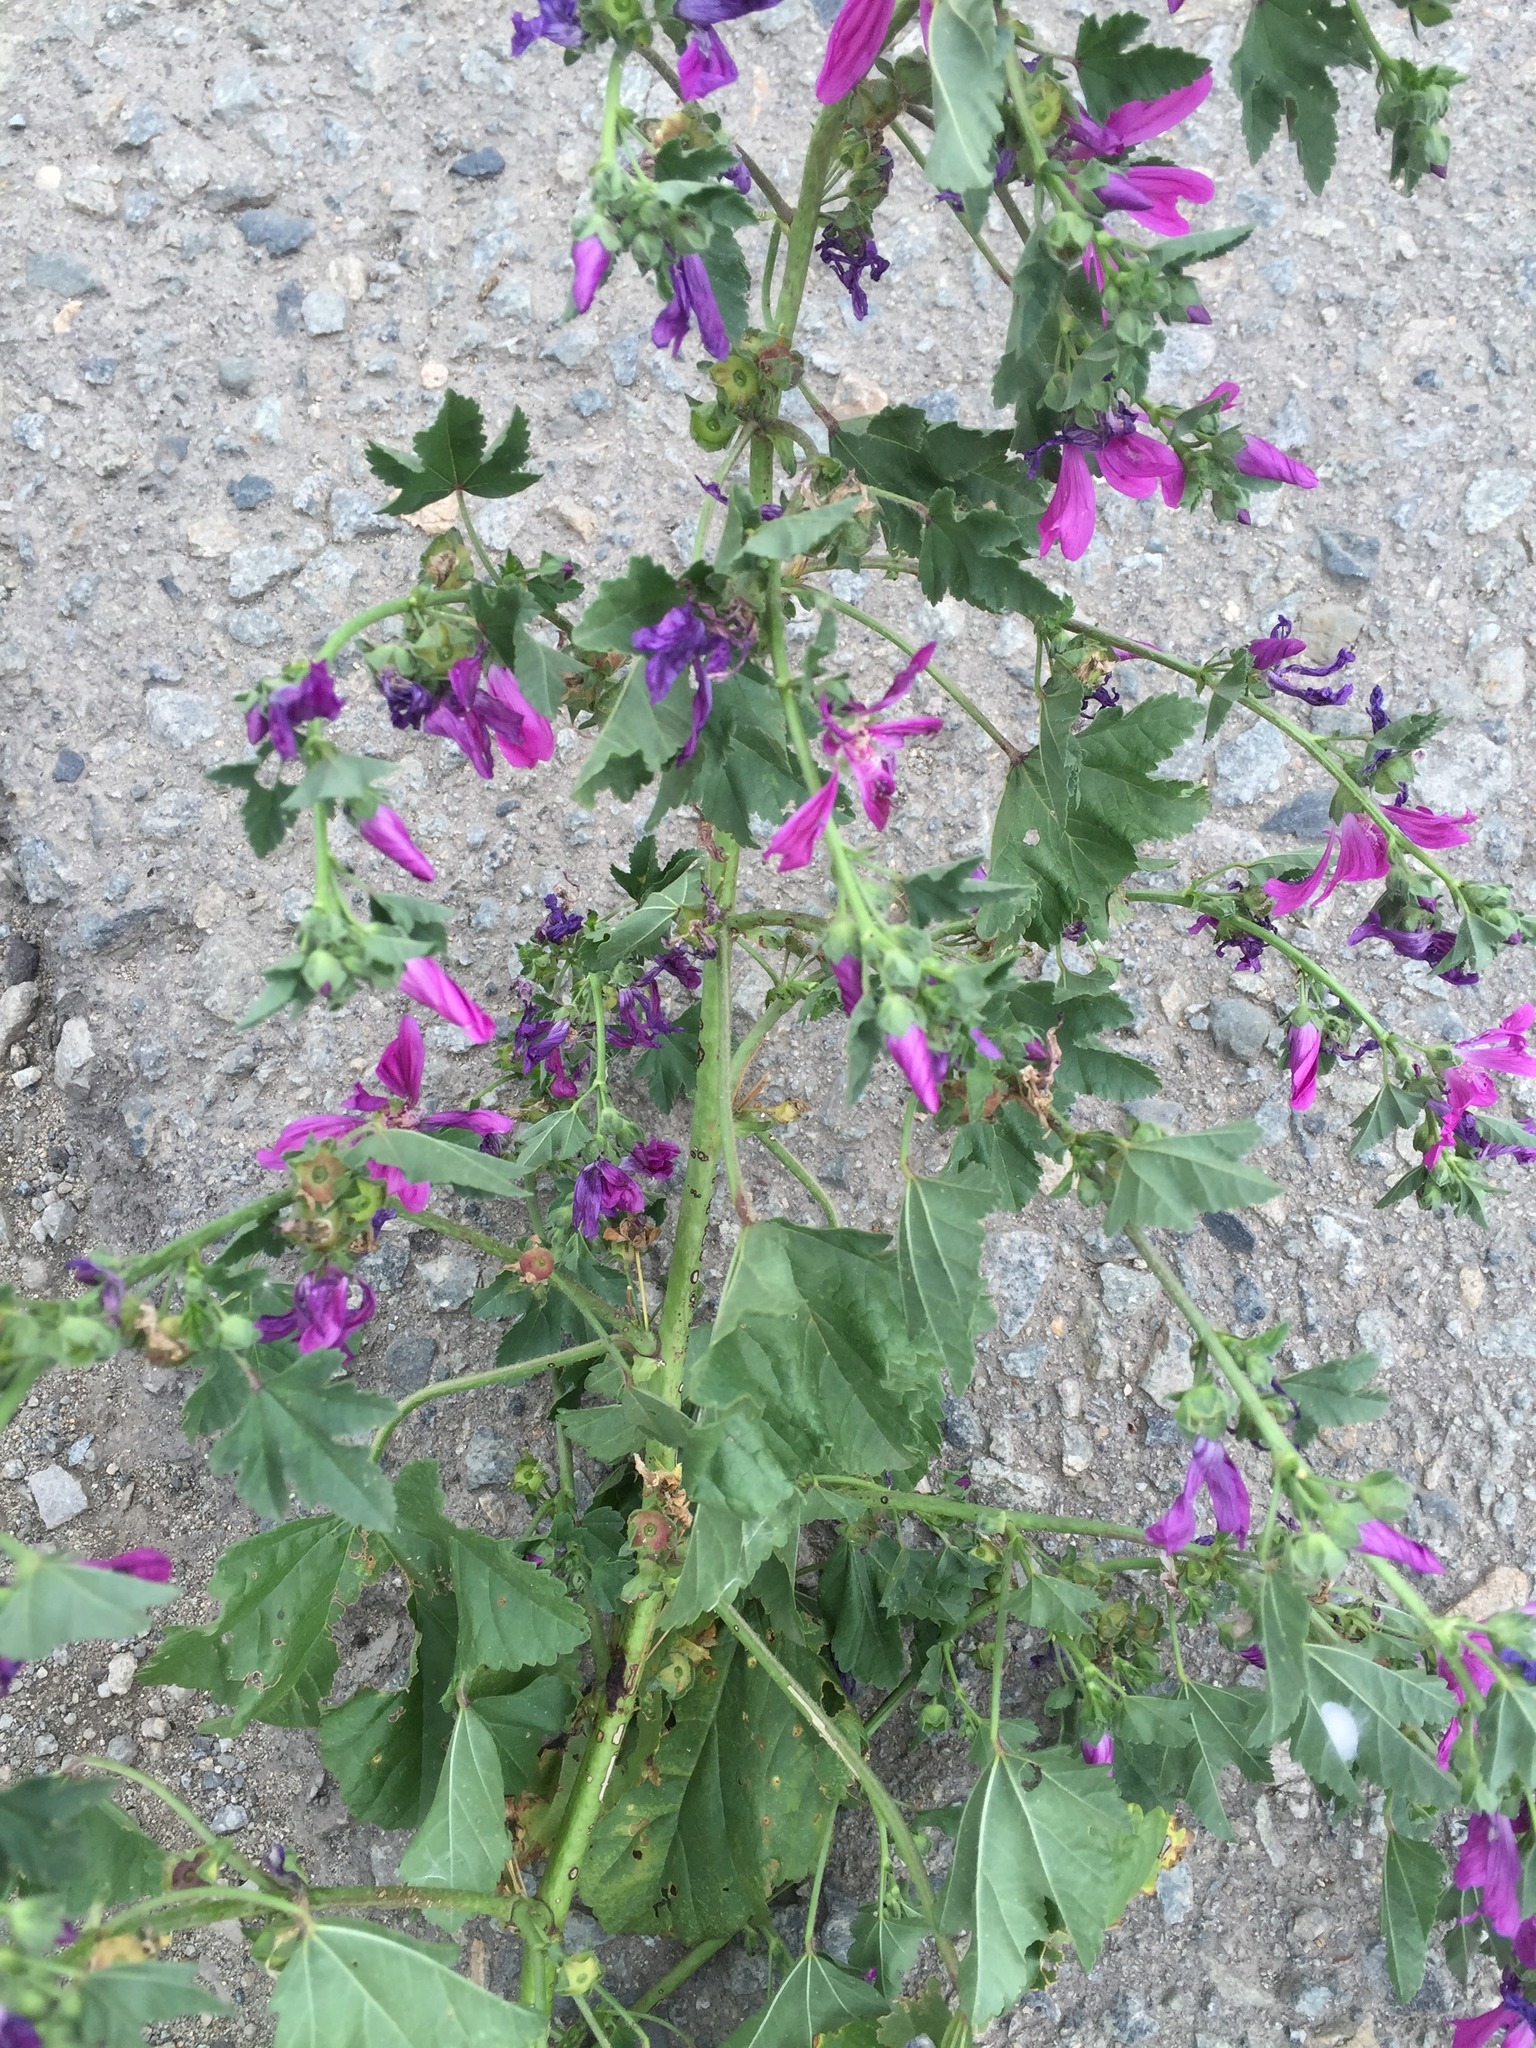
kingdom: Plantae
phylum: Tracheophyta
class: Magnoliopsida
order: Malvales
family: Malvaceae
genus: Malva
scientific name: Malva sylvestris
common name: Common mallow
